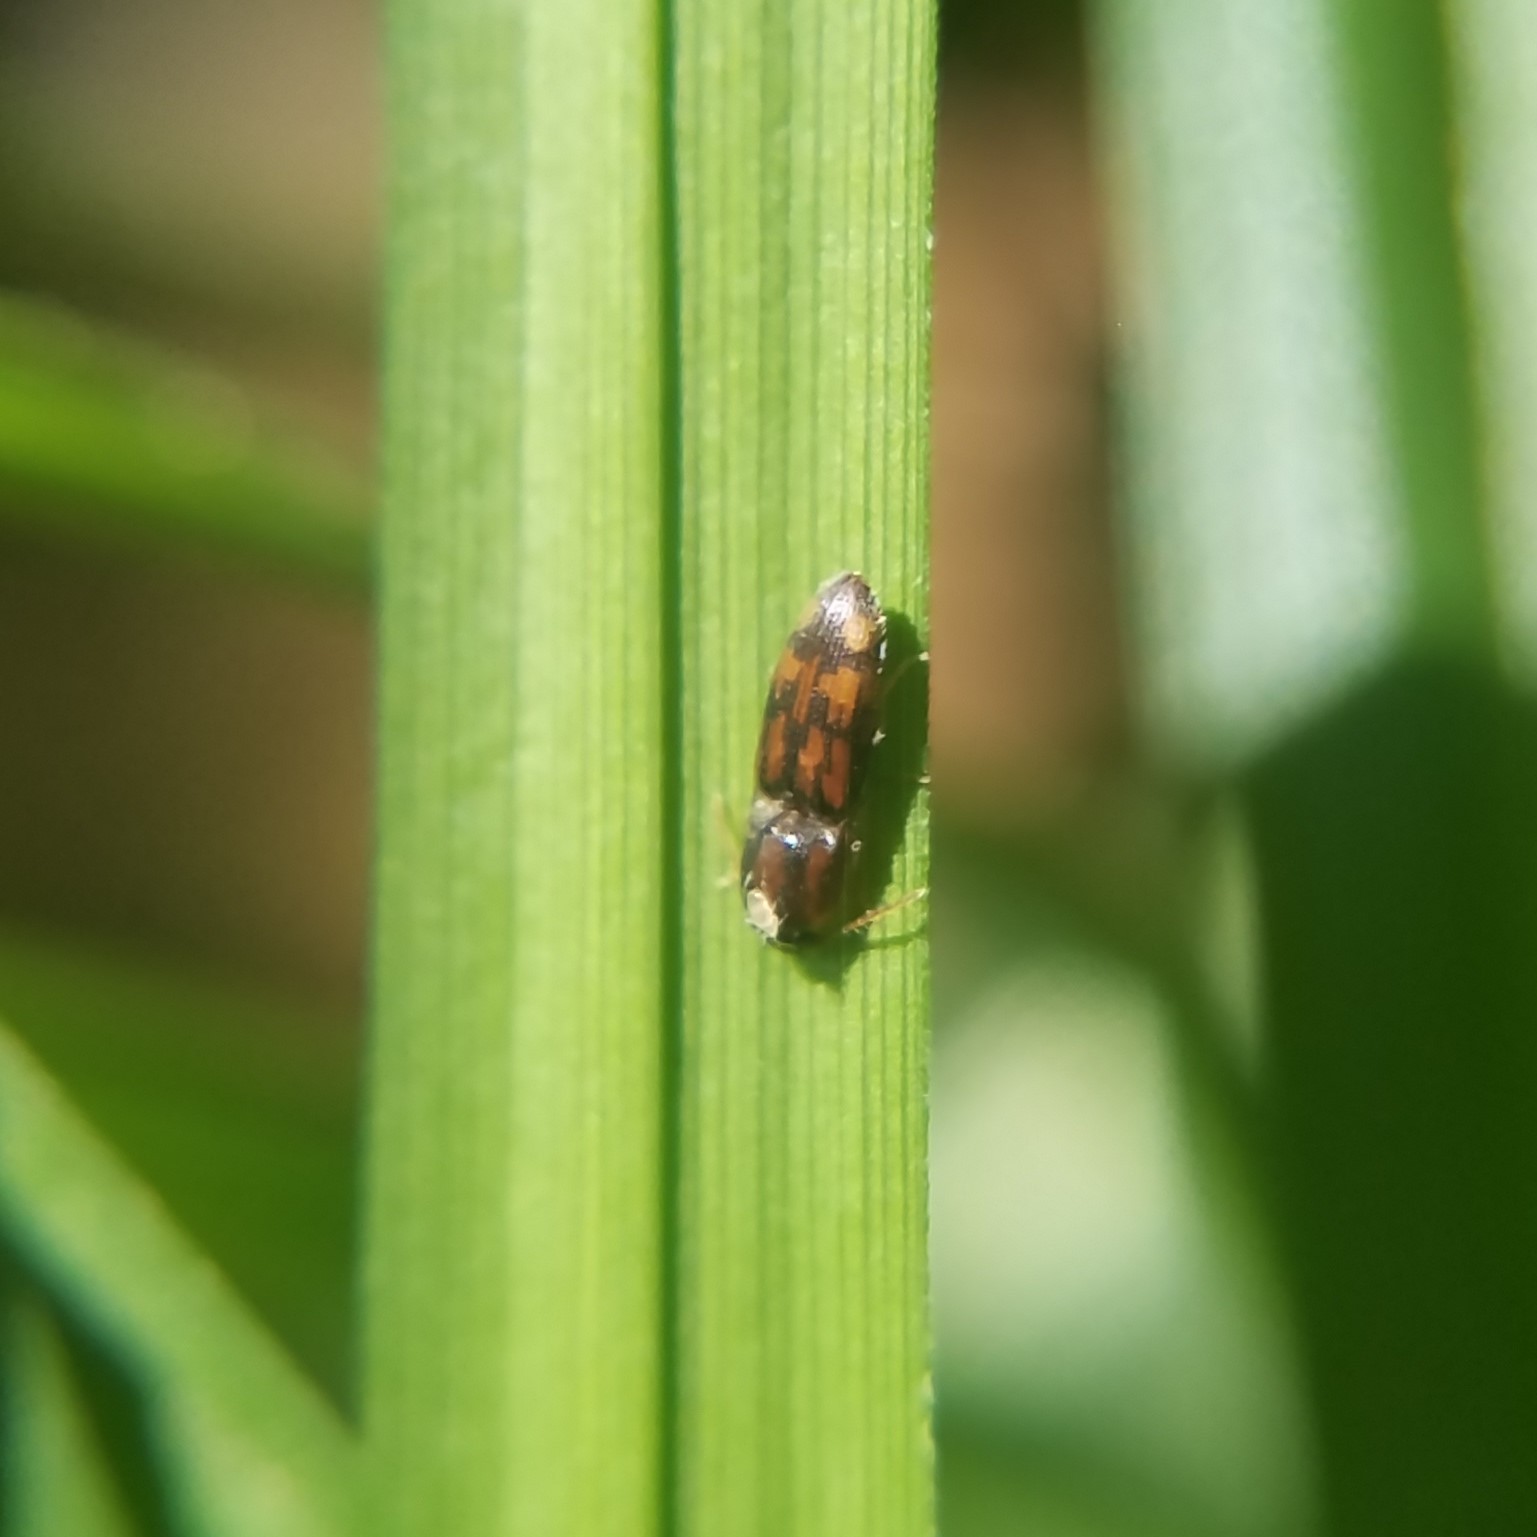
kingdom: Animalia
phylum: Arthropoda
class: Insecta
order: Coleoptera
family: Elateridae
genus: Monocrepidius
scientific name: Monocrepidius bellus
